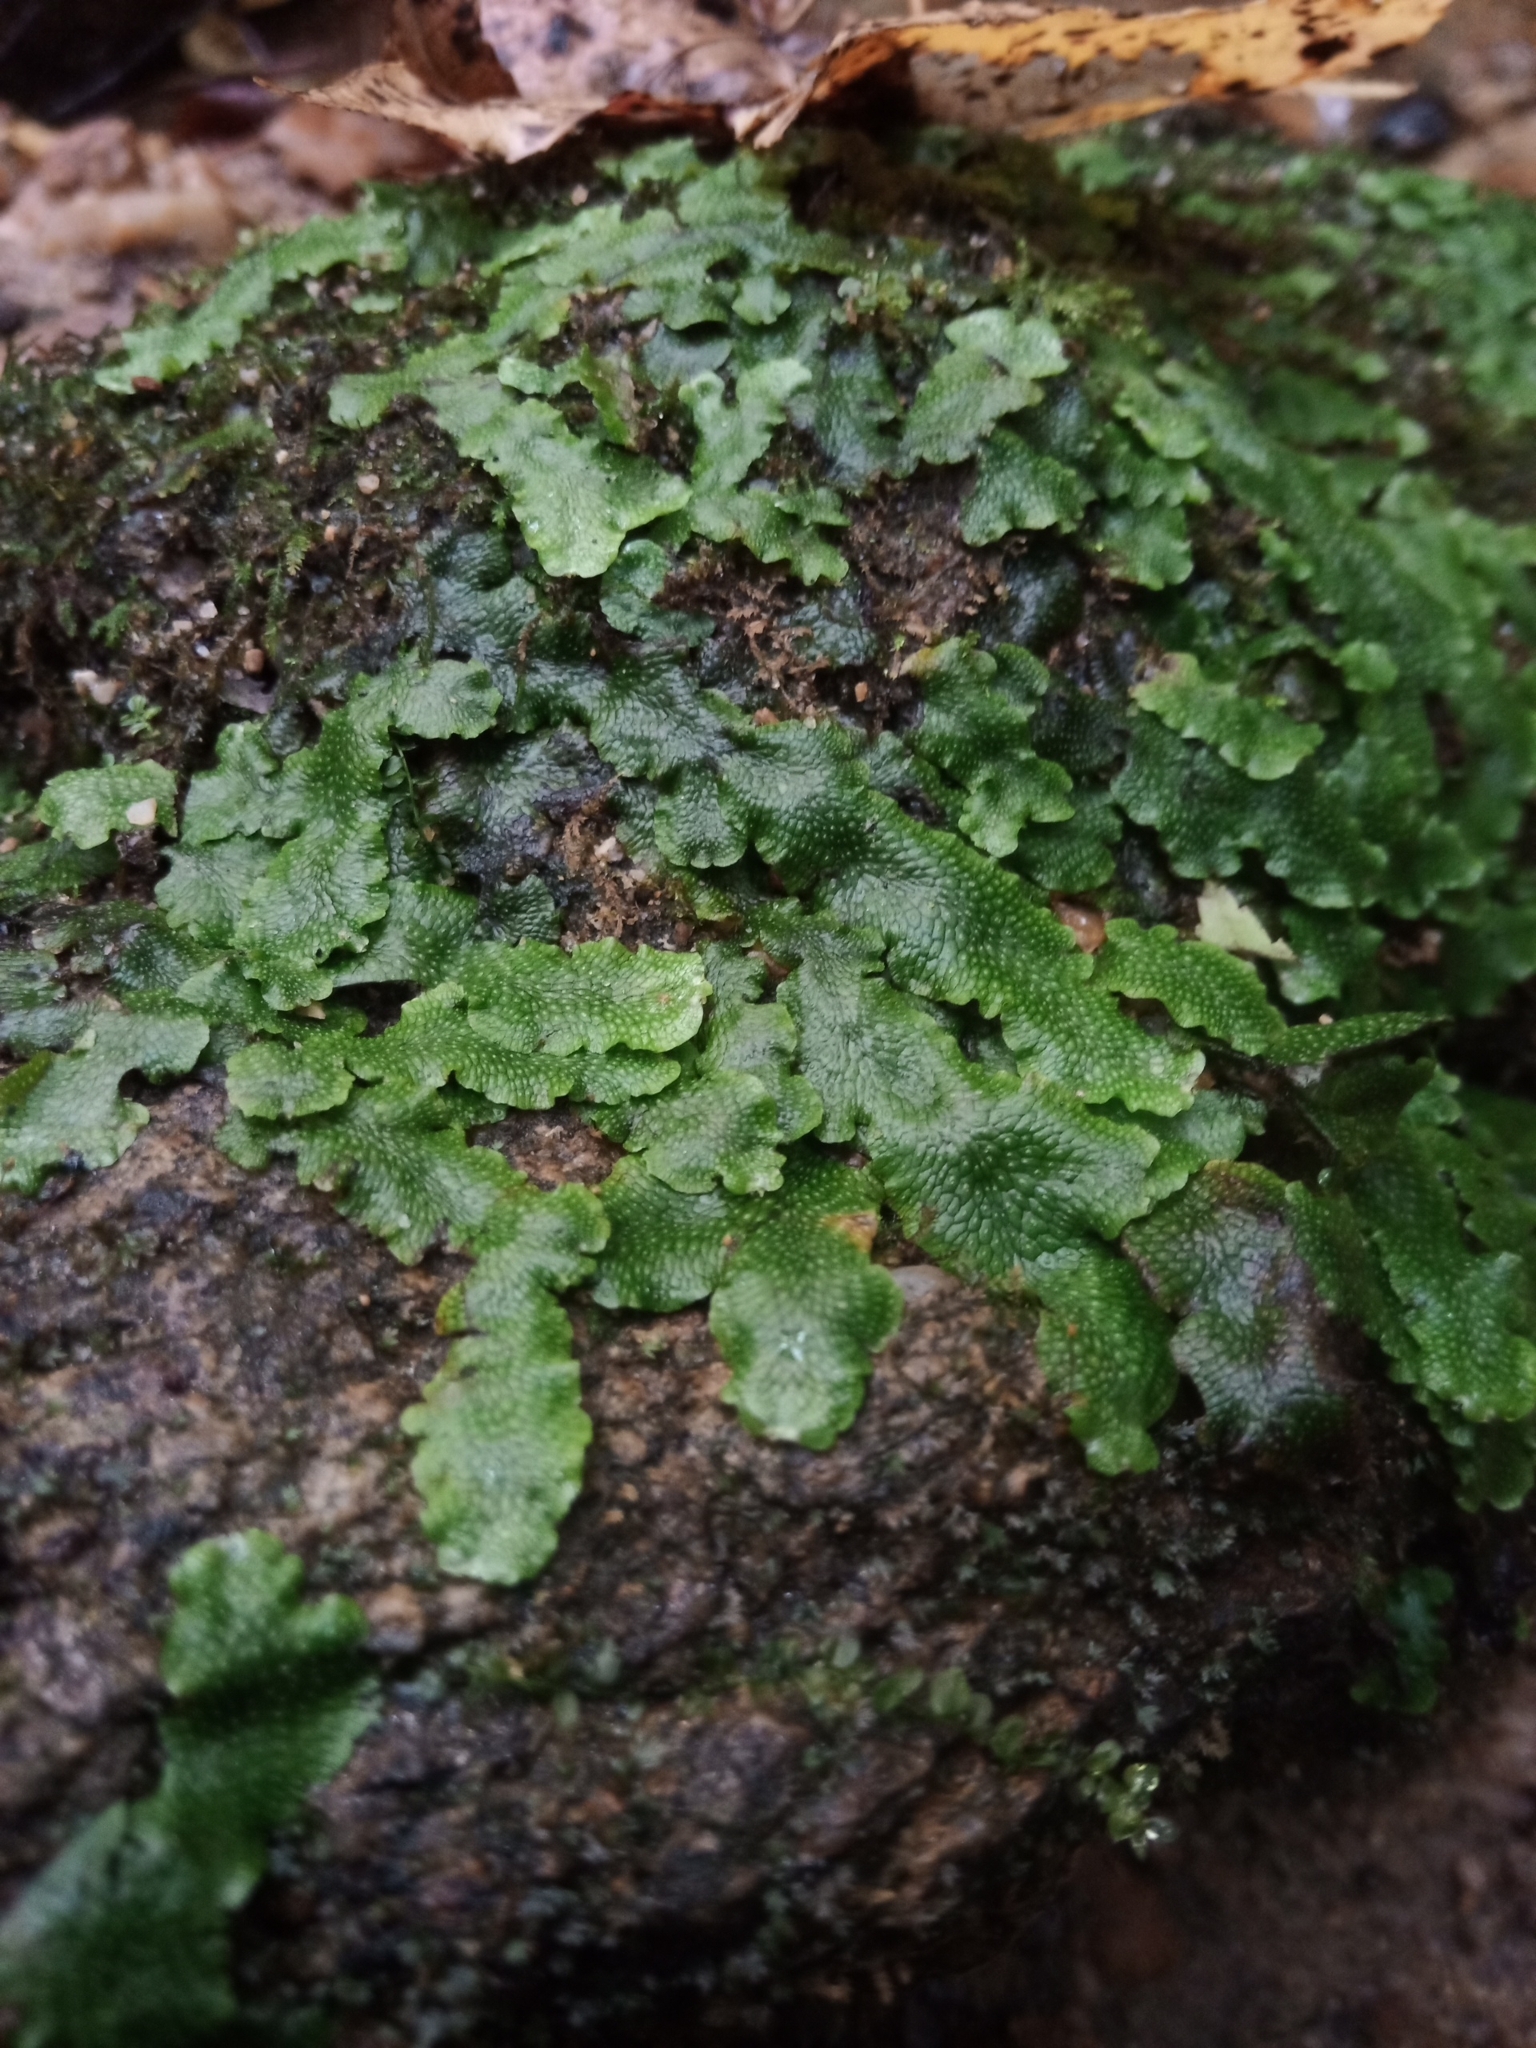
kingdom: Plantae
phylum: Marchantiophyta
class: Marchantiopsida
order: Marchantiales
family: Conocephalaceae
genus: Conocephalum
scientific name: Conocephalum salebrosum
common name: Cat-tongue liverwort
